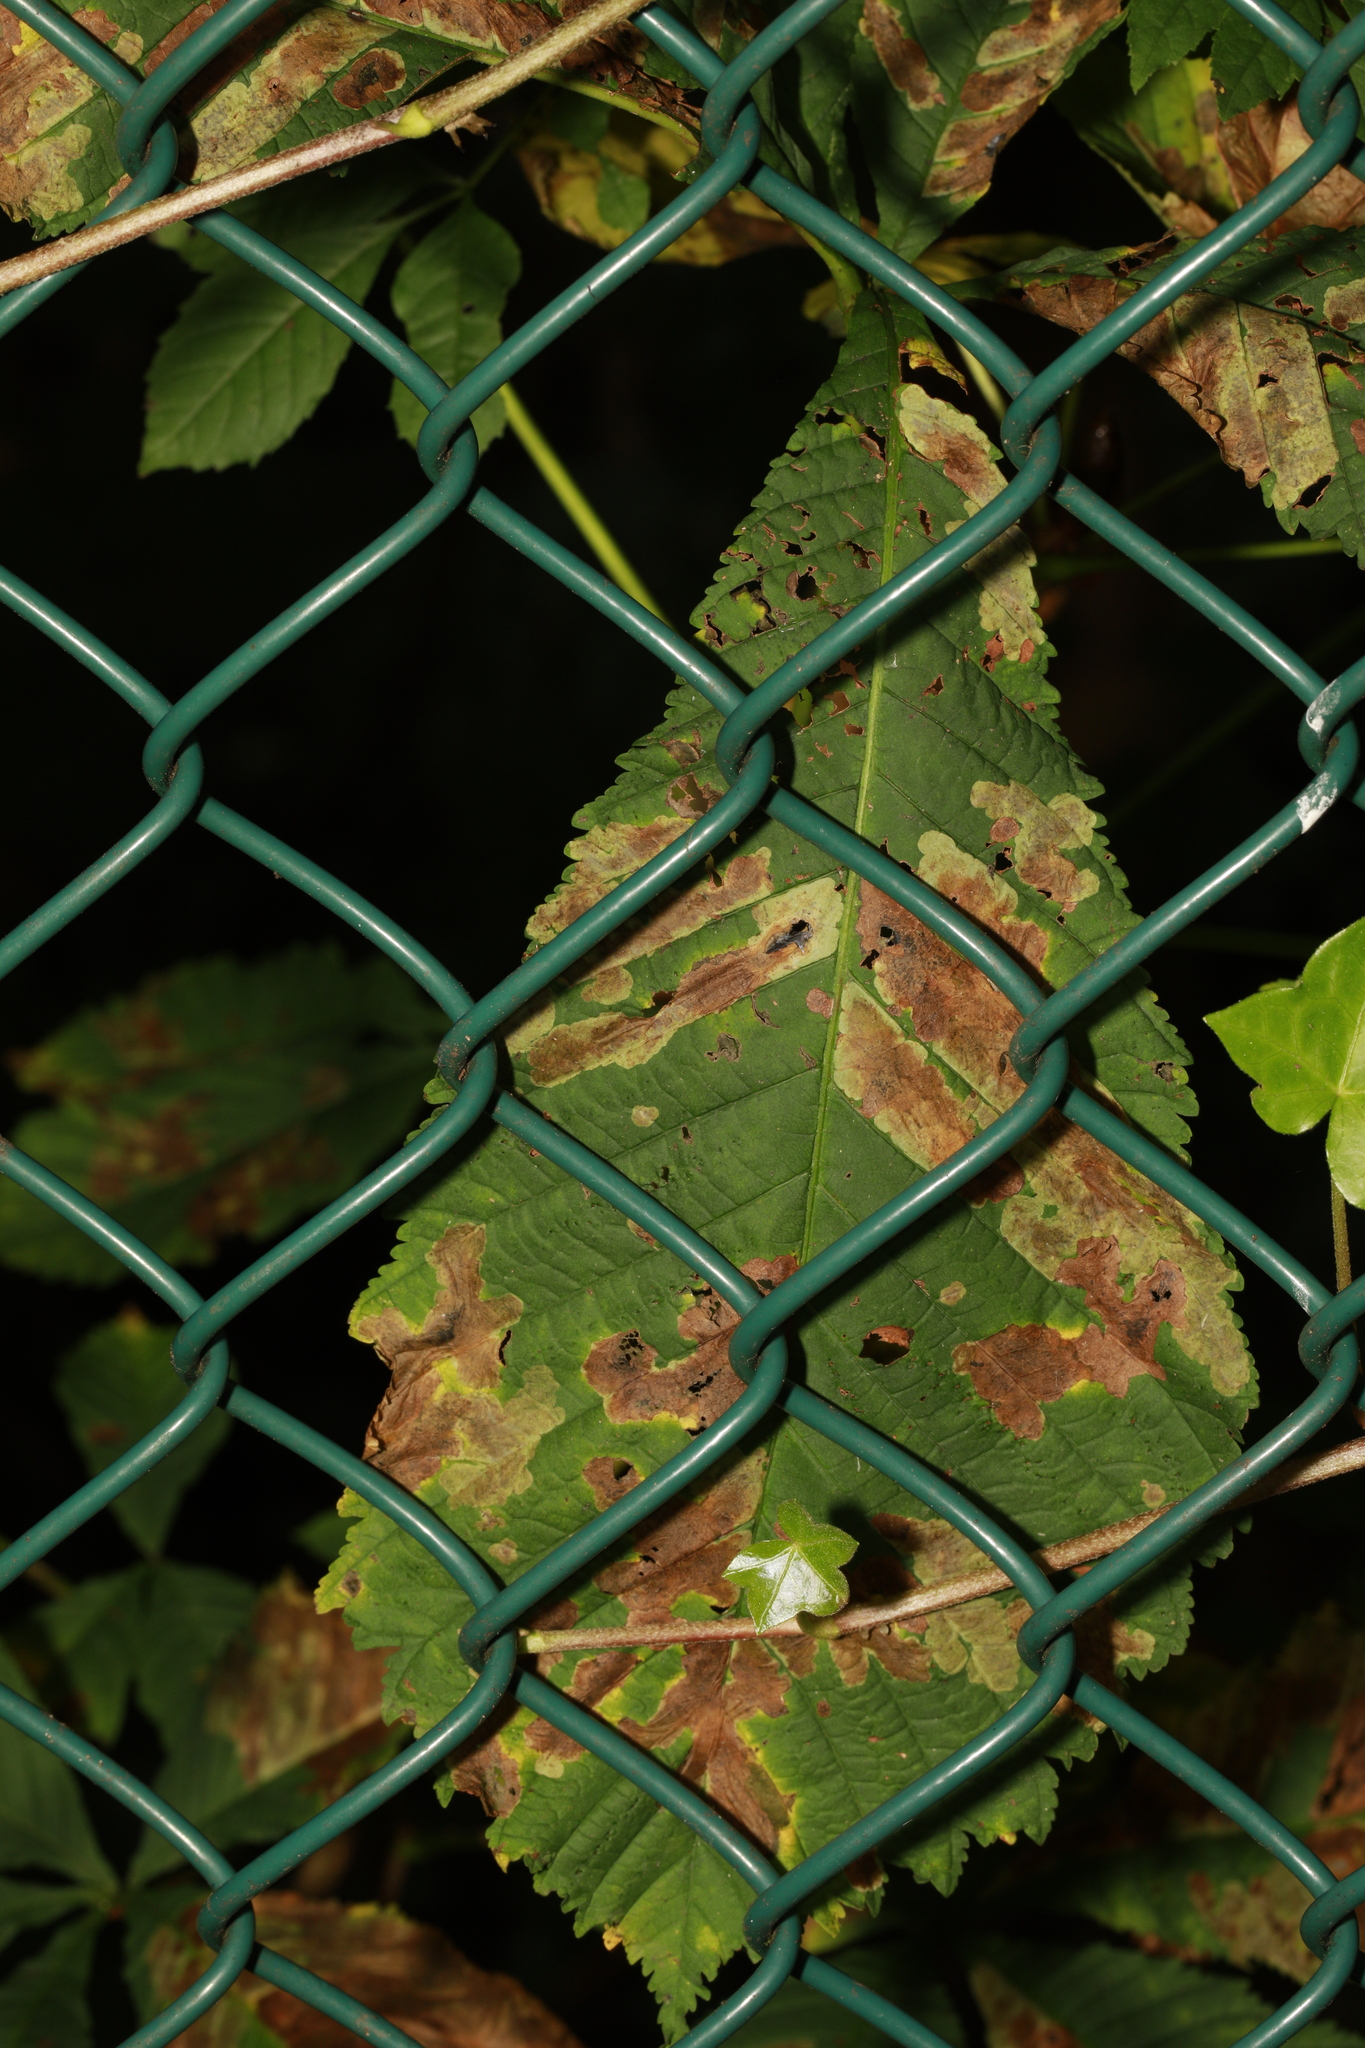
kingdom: Animalia
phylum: Arthropoda
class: Insecta
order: Lepidoptera
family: Gracillariidae
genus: Cameraria
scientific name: Cameraria ohridella
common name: Horse-chestnut leaf-miner
